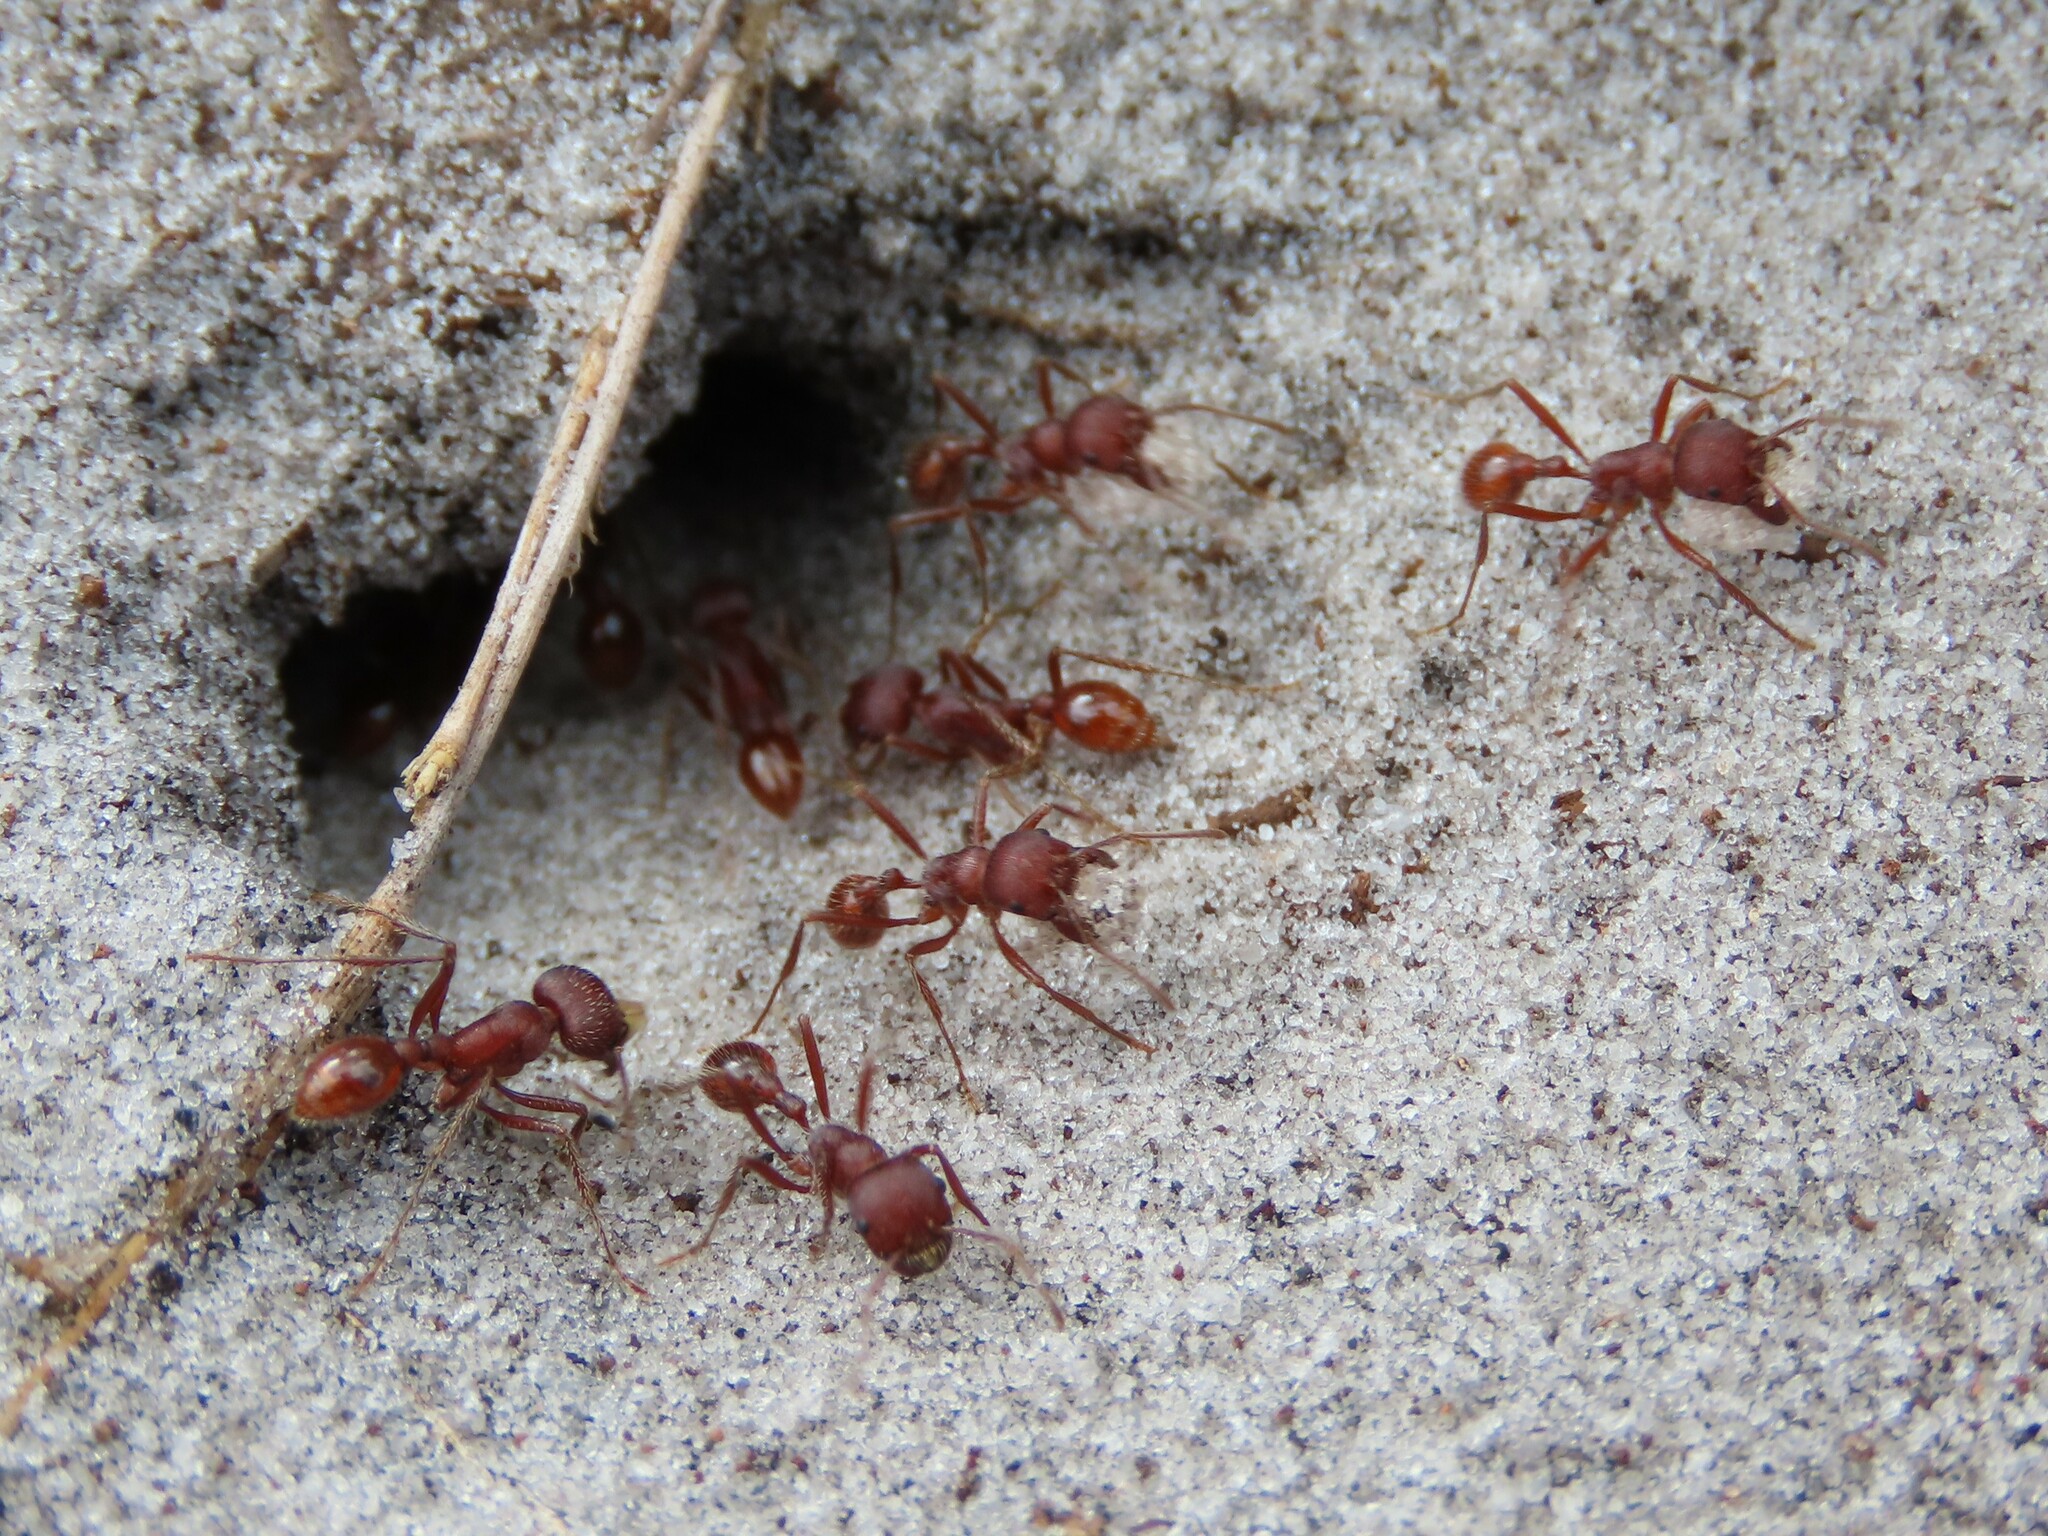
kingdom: Animalia
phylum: Arthropoda
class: Insecta
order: Hymenoptera
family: Formicidae
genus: Pogonomyrmex
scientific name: Pogonomyrmex badius
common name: Florida harvester ant
